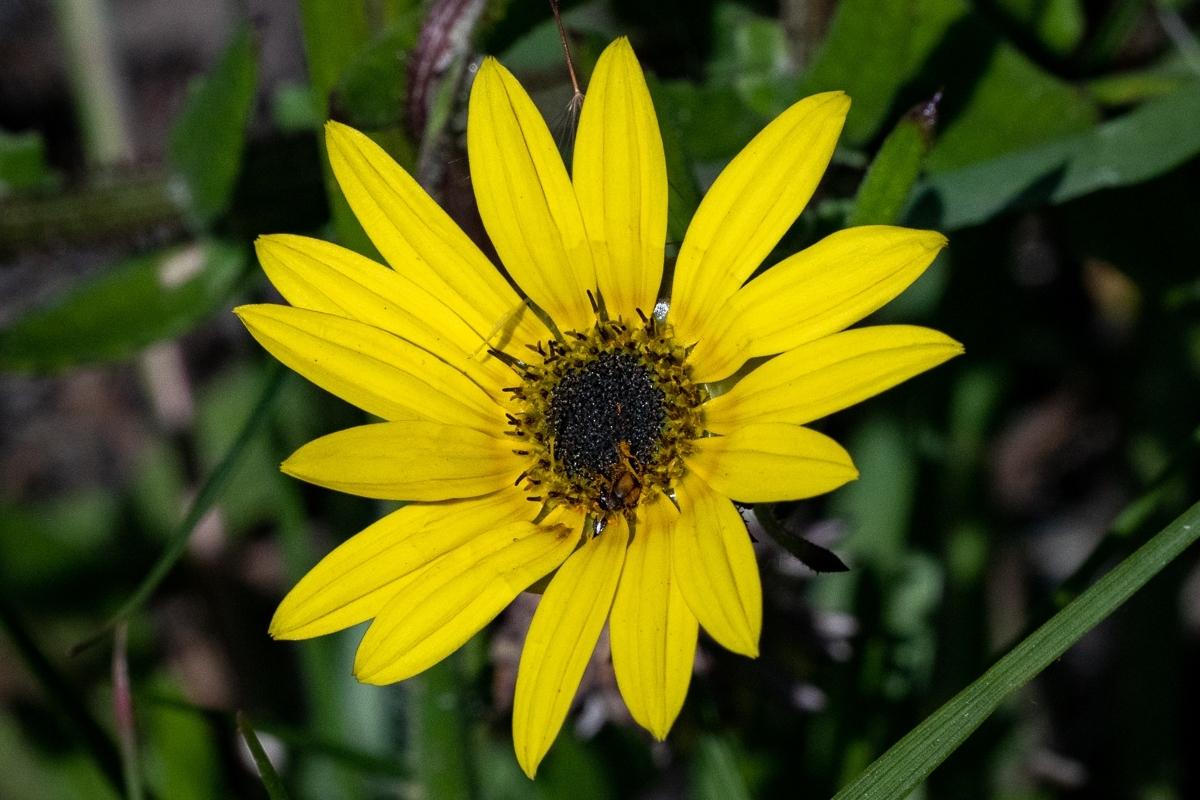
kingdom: Plantae
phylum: Tracheophyta
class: Magnoliopsida
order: Asterales
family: Asteraceae
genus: Arctotis
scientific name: Arctotis scabra
